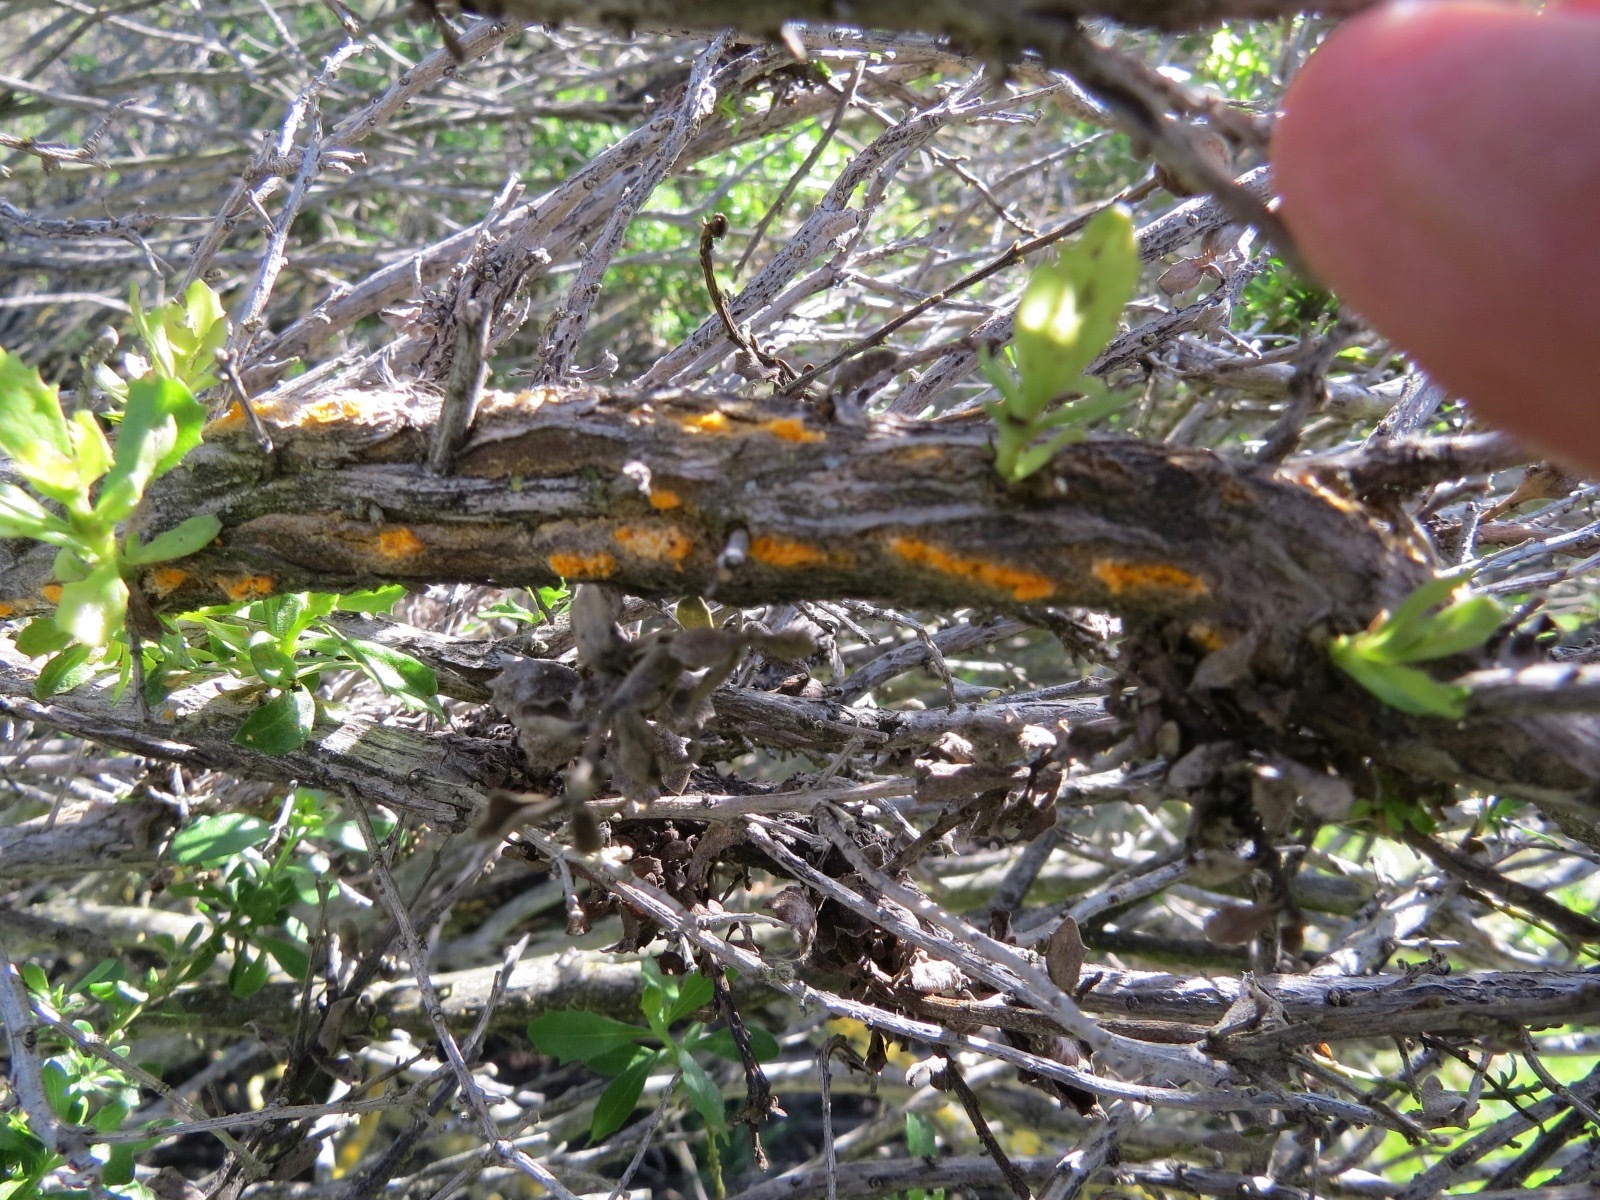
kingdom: Fungi
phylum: Basidiomycota
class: Pucciniomycetes
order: Pucciniales
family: Pucciniaceae
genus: Eriosporangium
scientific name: Eriosporangium evadens
